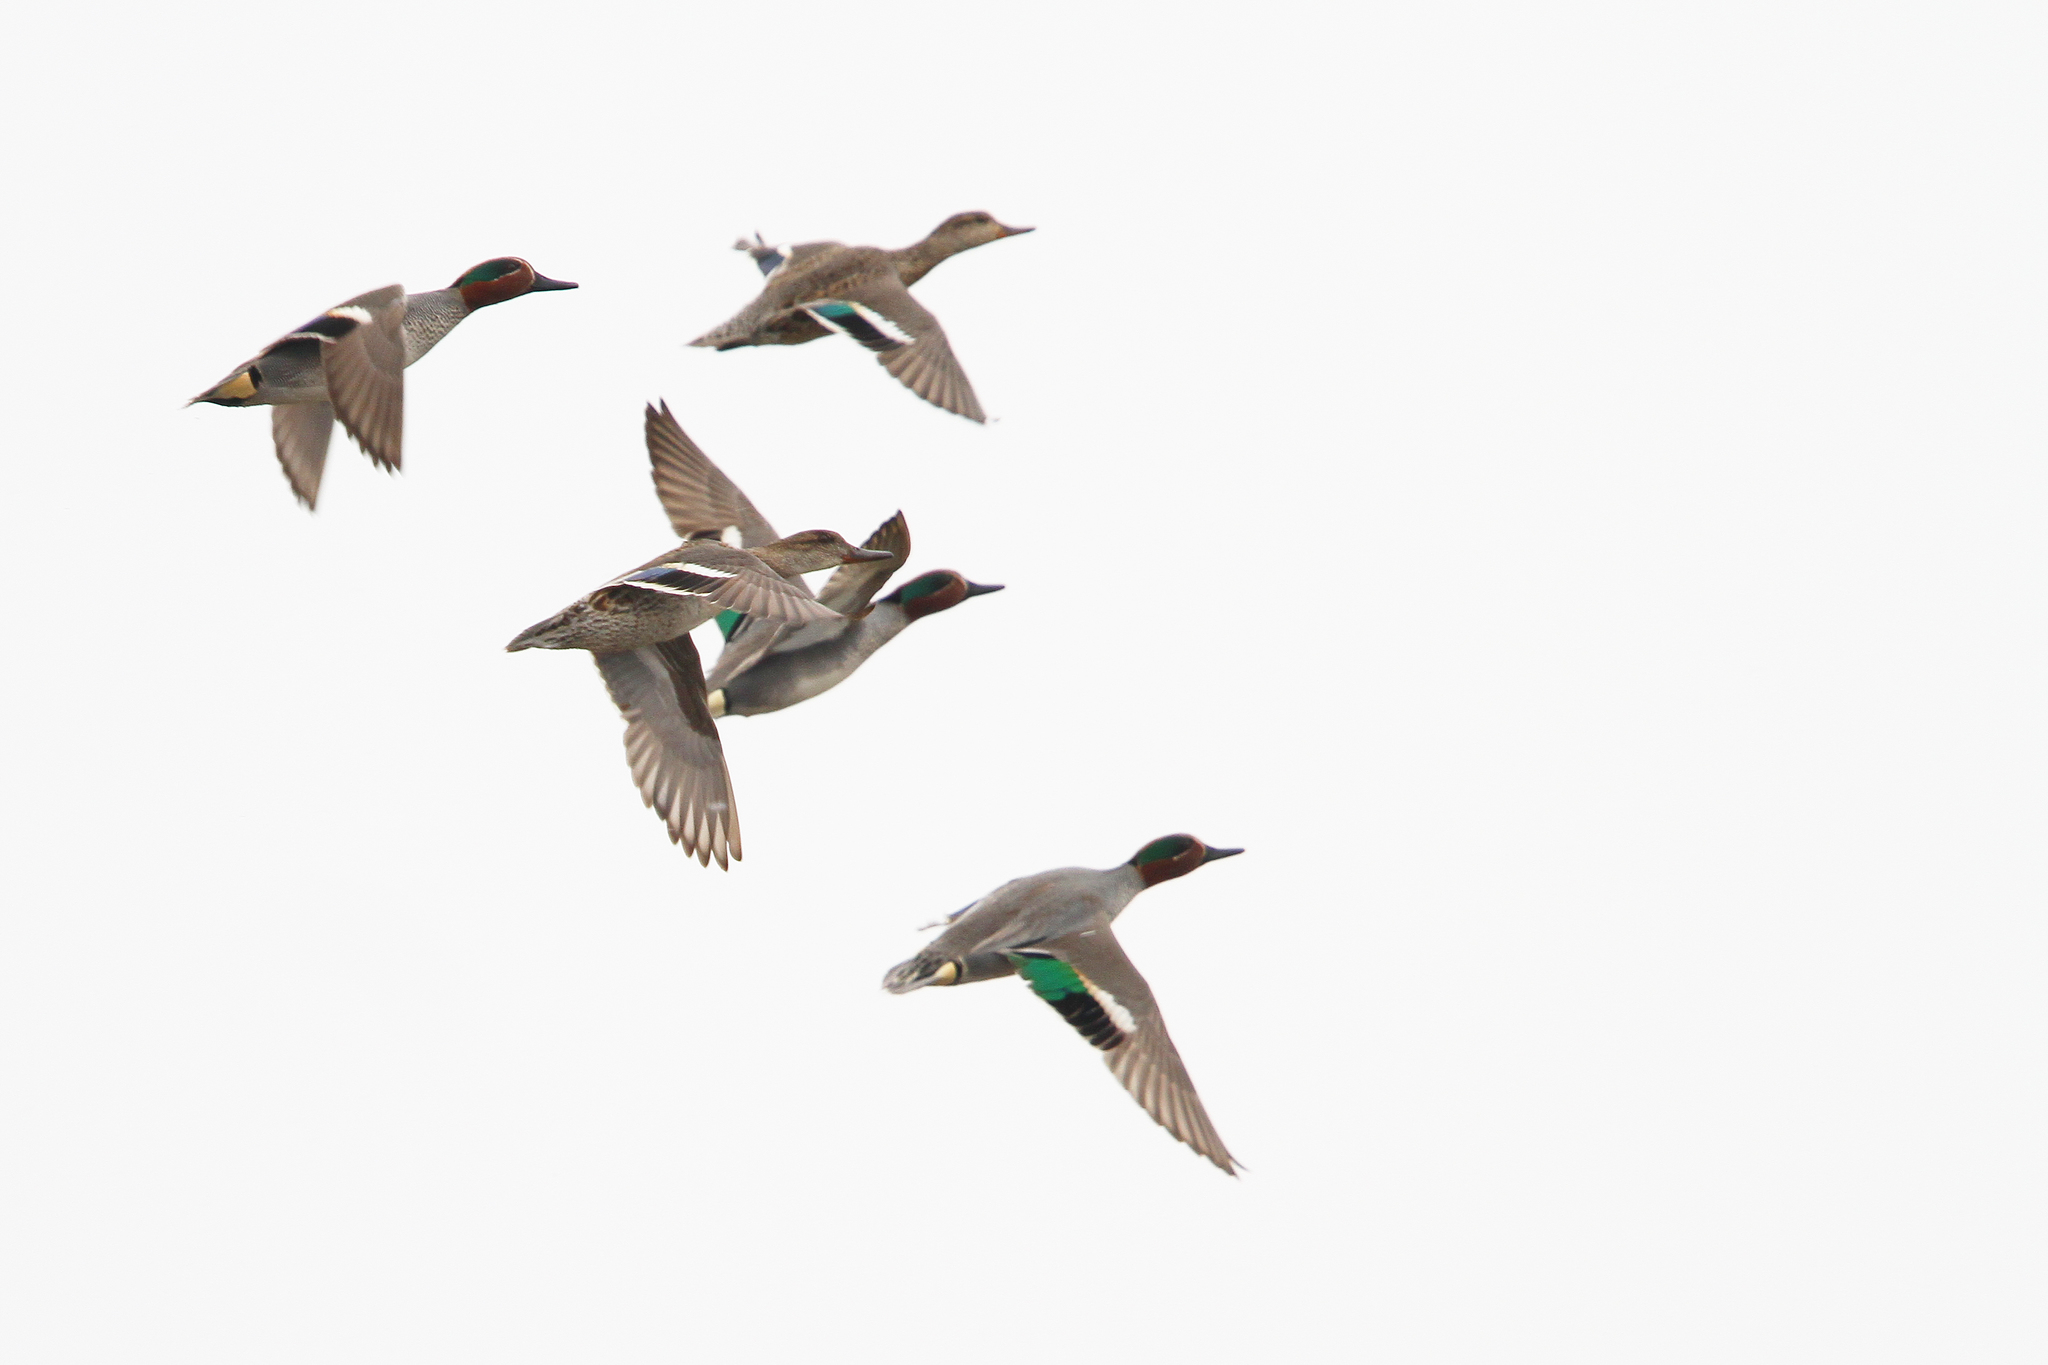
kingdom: Animalia
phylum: Chordata
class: Aves
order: Anseriformes
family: Anatidae
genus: Anas
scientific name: Anas crecca
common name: Eurasian teal
